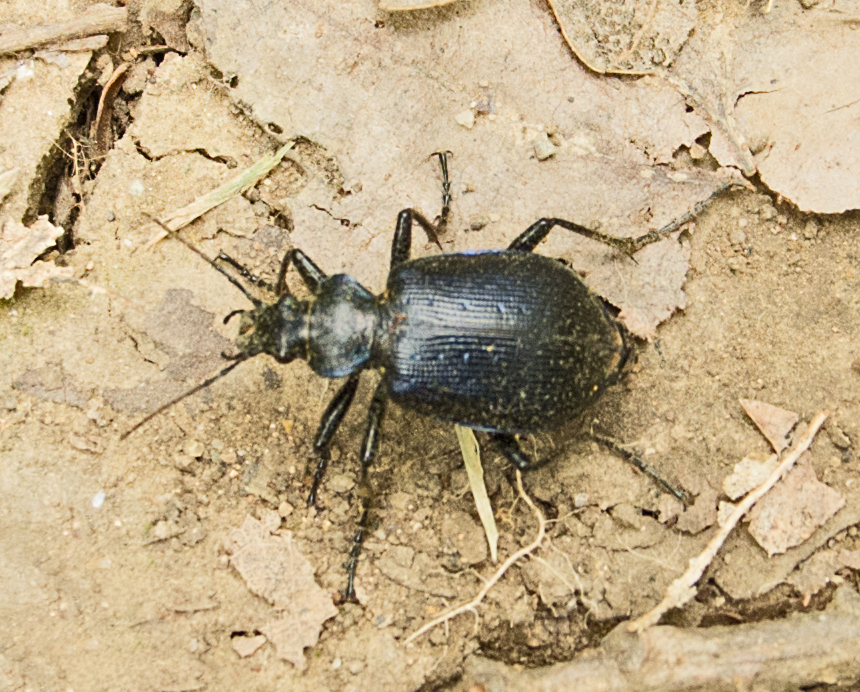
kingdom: Animalia
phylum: Arthropoda
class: Insecta
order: Coleoptera
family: Carabidae
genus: Calosoma
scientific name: Calosoma inquisitor
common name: Caterpillar-hunter
